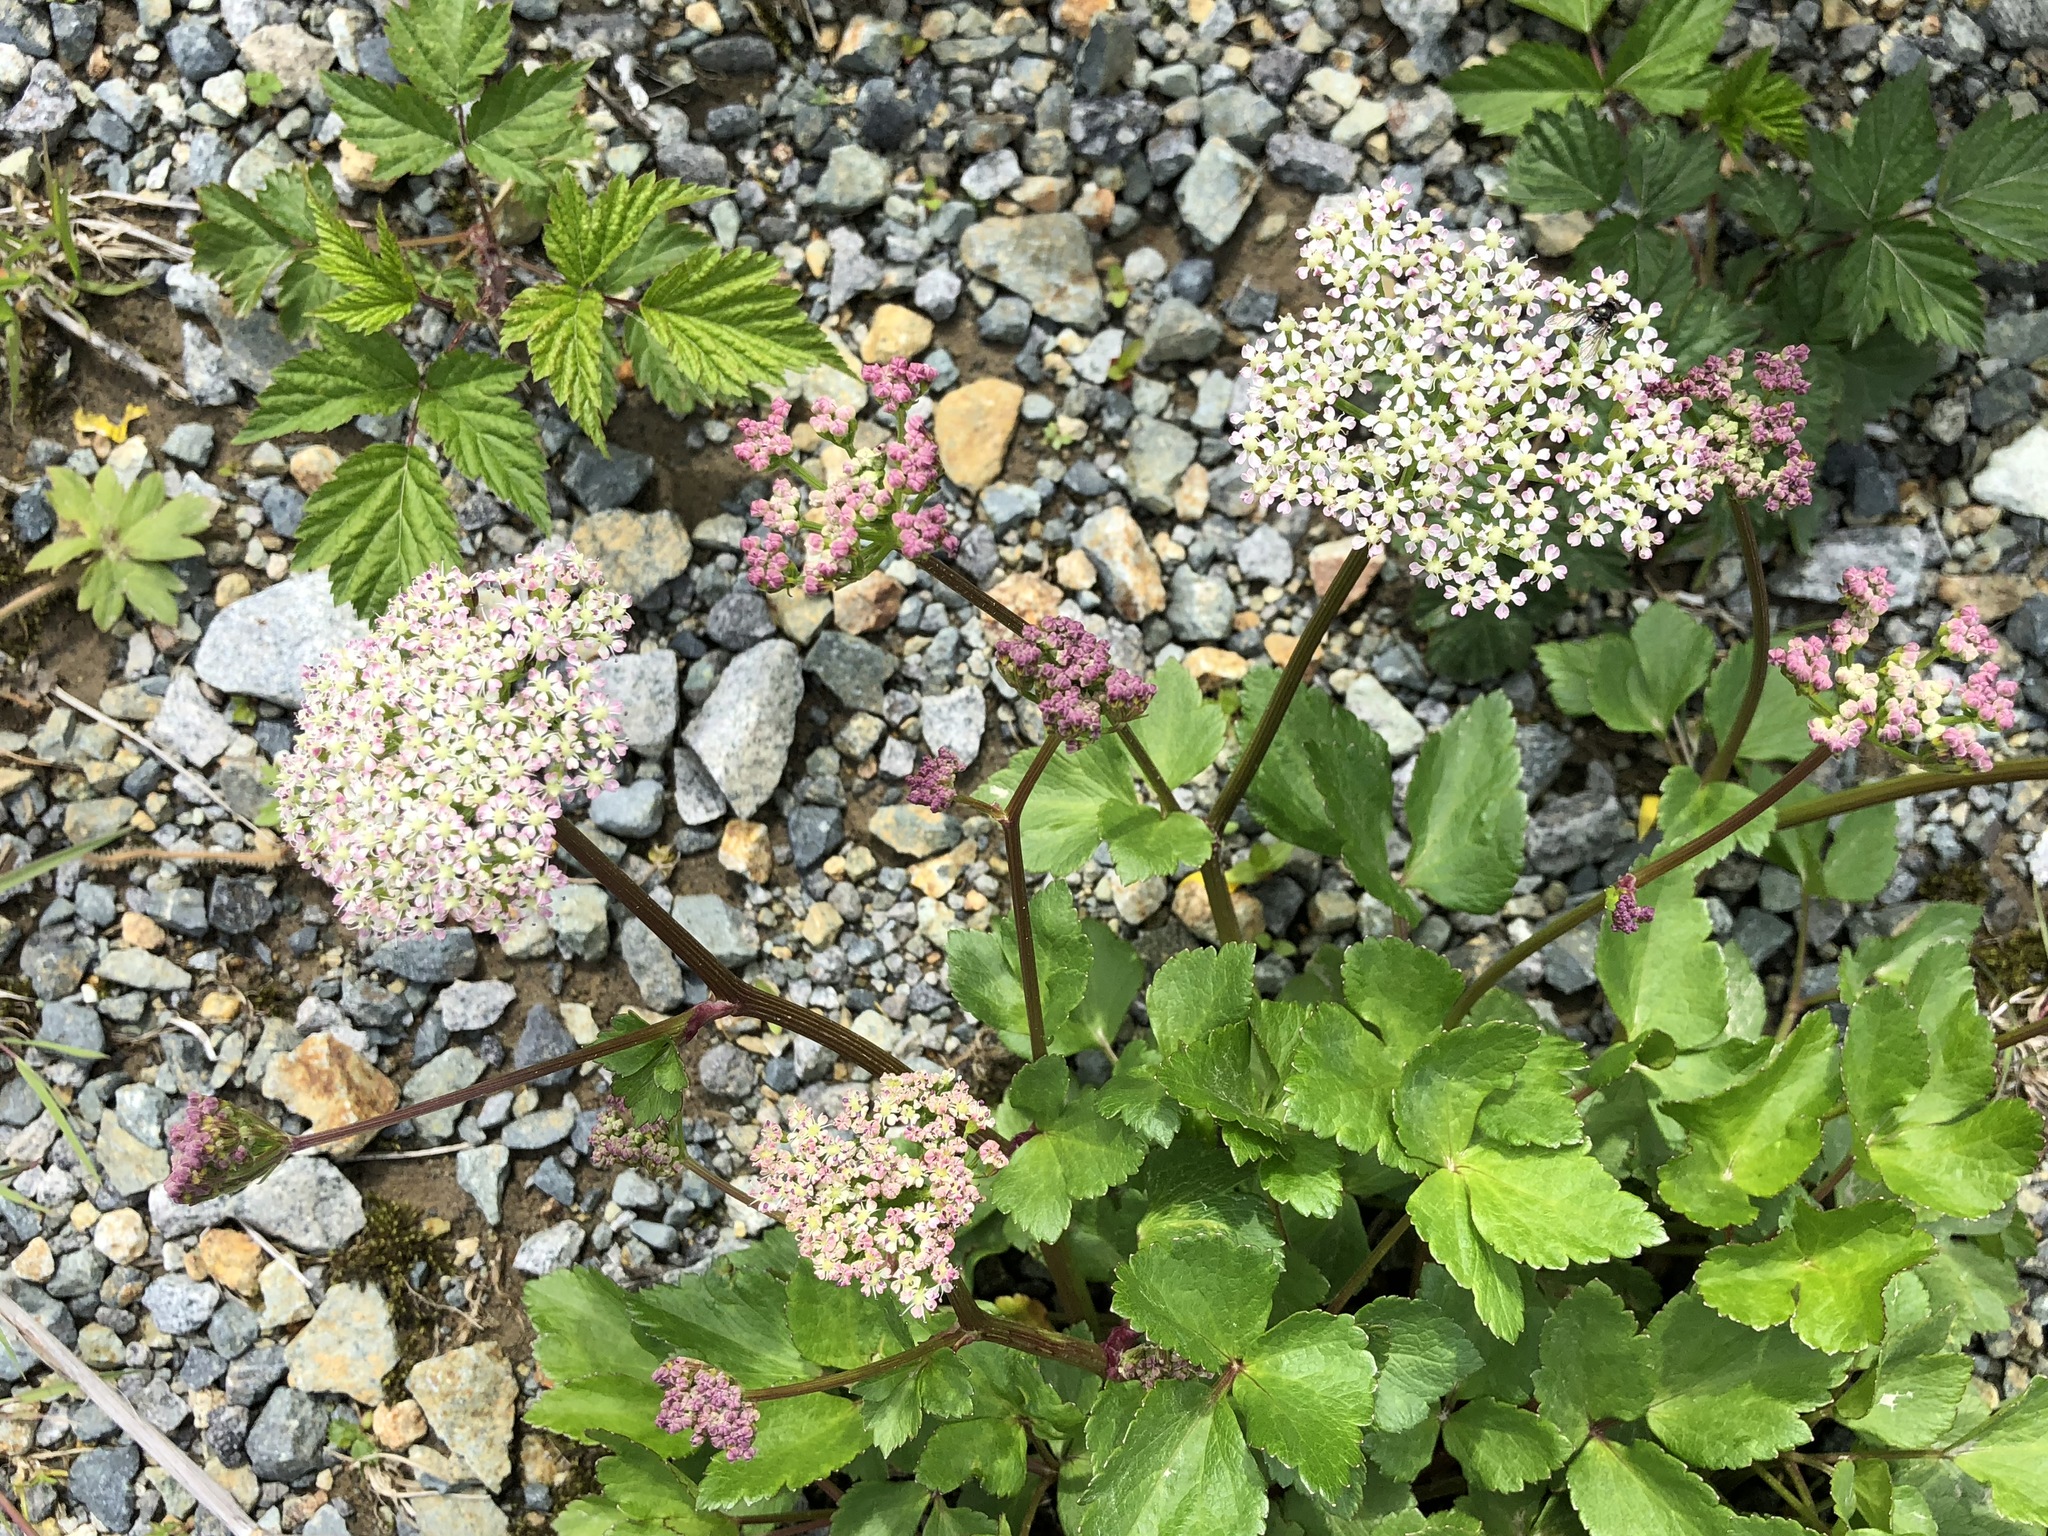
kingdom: Plantae
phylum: Tracheophyta
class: Magnoliopsida
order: Apiales
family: Apiaceae
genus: Ligusticum
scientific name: Ligusticum scothicum
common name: Beach lovage
